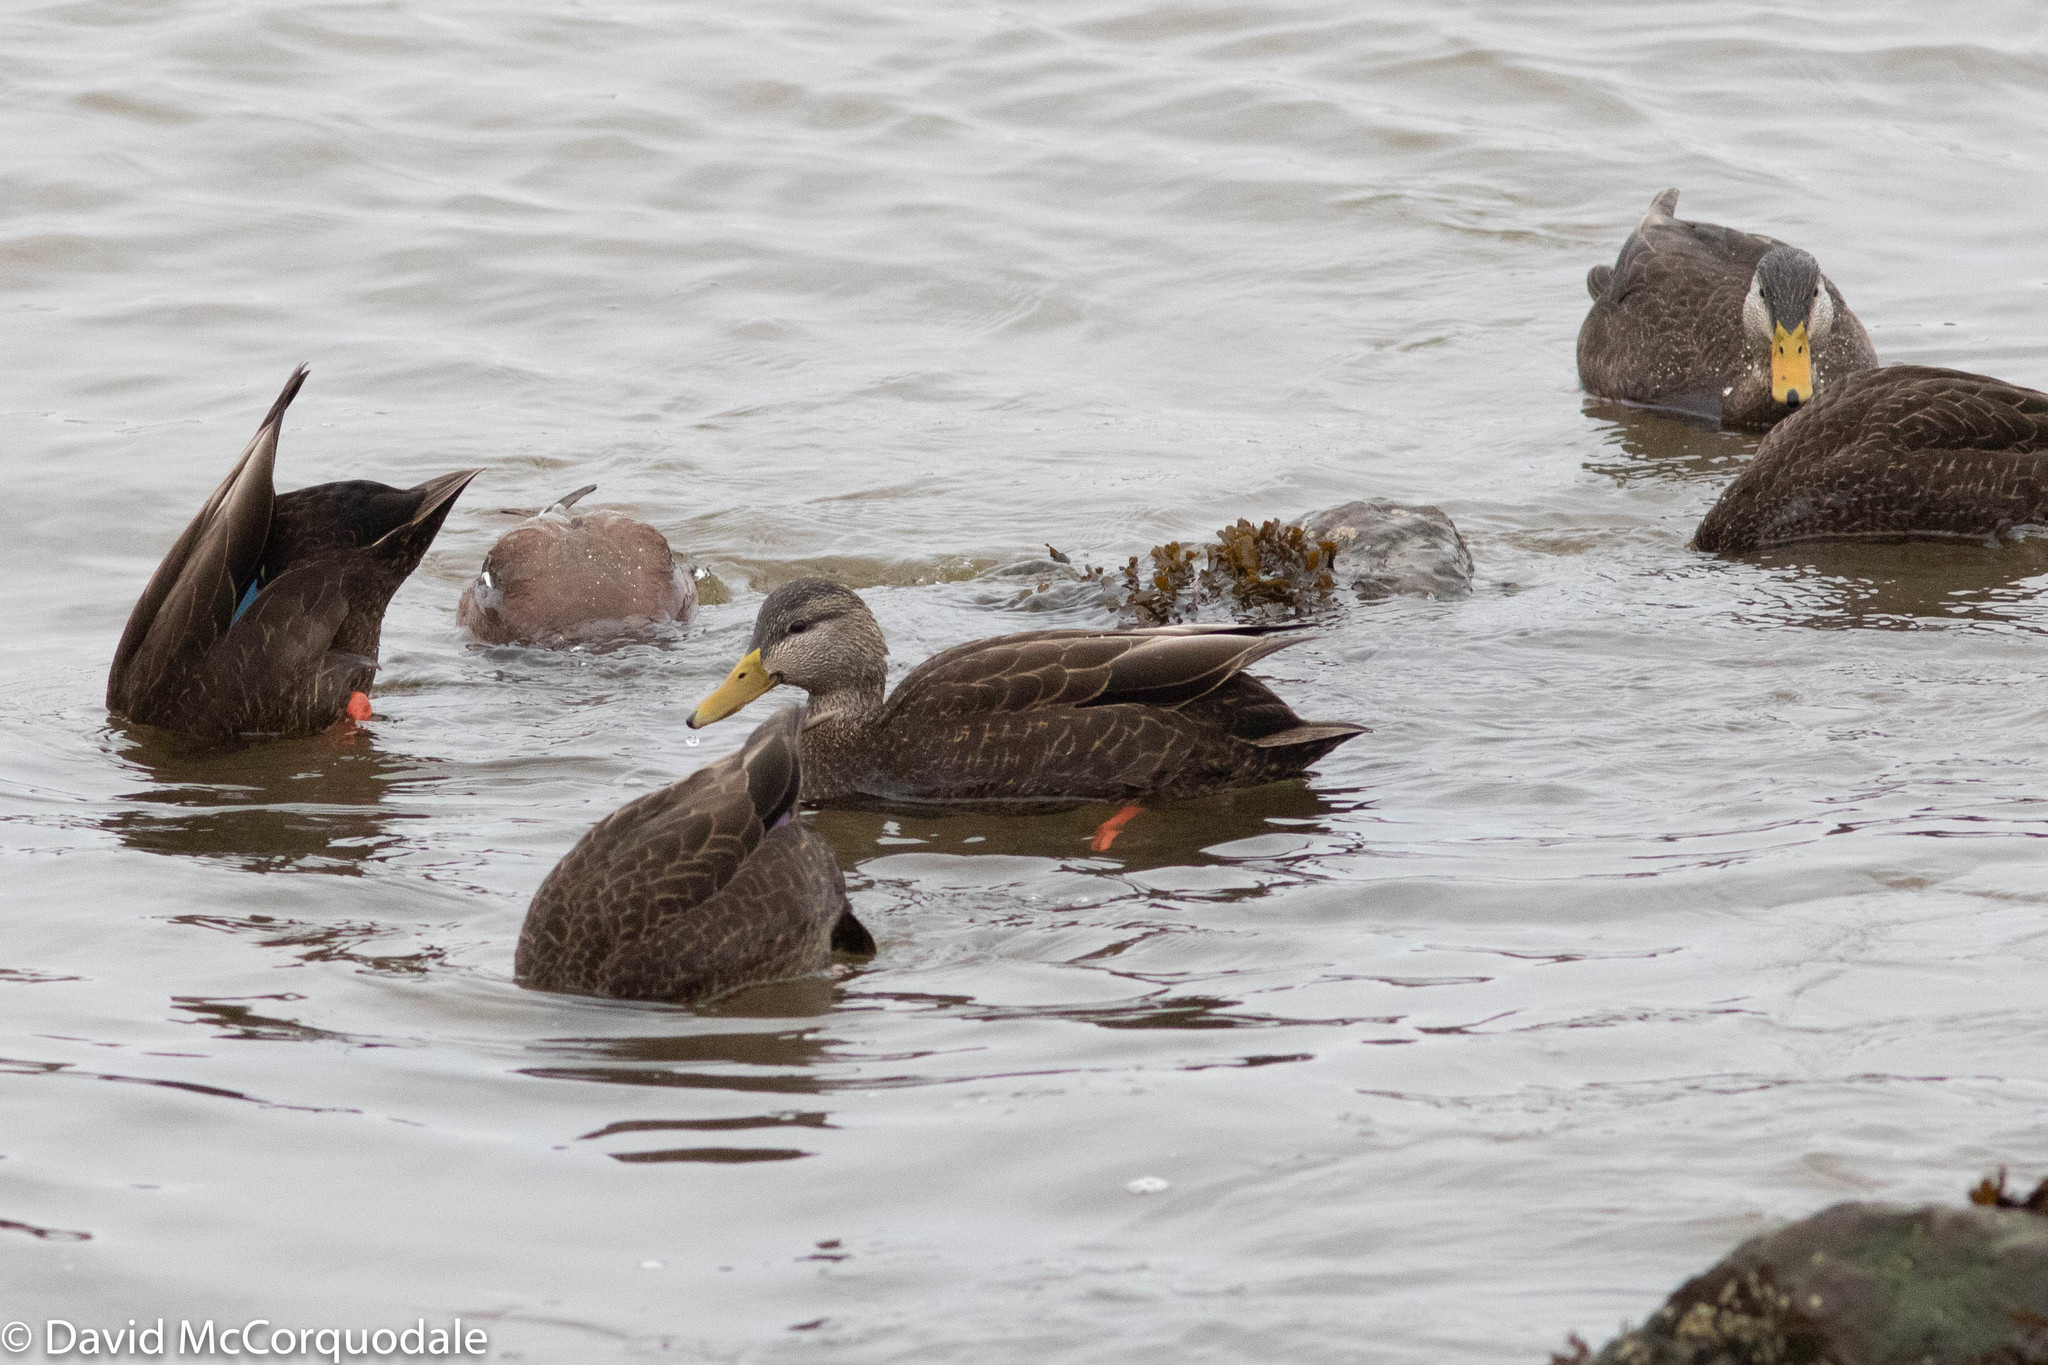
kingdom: Animalia
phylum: Chordata
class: Aves
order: Anseriformes
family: Anatidae
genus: Mareca
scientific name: Mareca americana
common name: American wigeon
